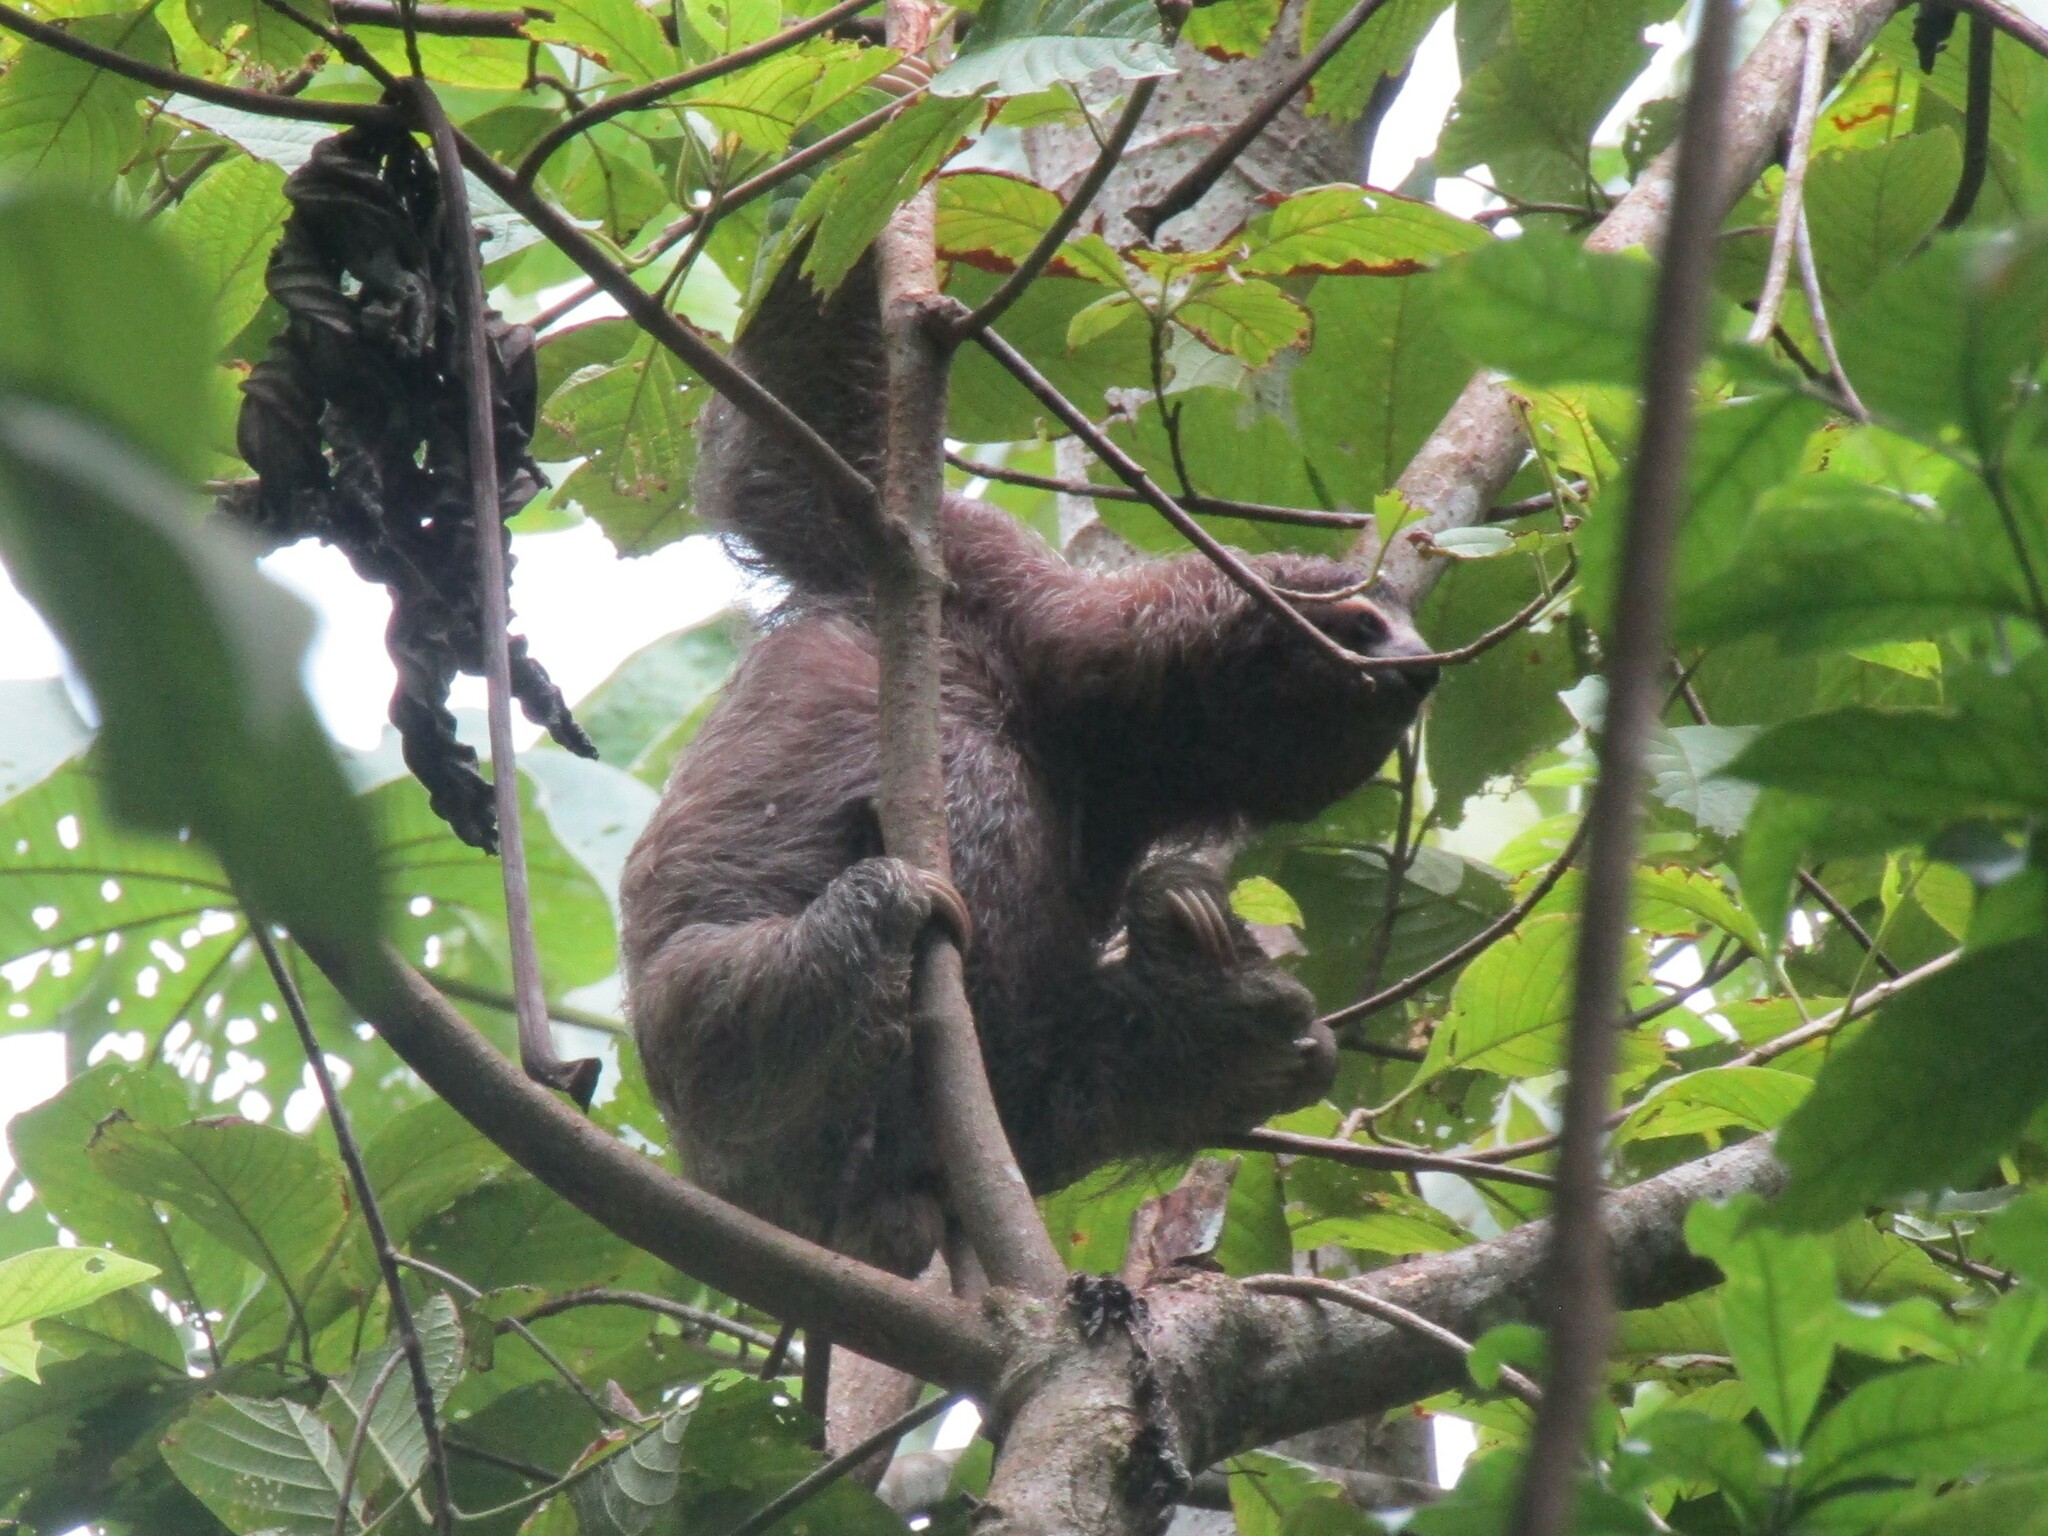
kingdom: Animalia
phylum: Chordata
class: Mammalia
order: Pilosa
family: Bradypodidae
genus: Bradypus
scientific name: Bradypus variegatus
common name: Brown-throated three-toed sloth
